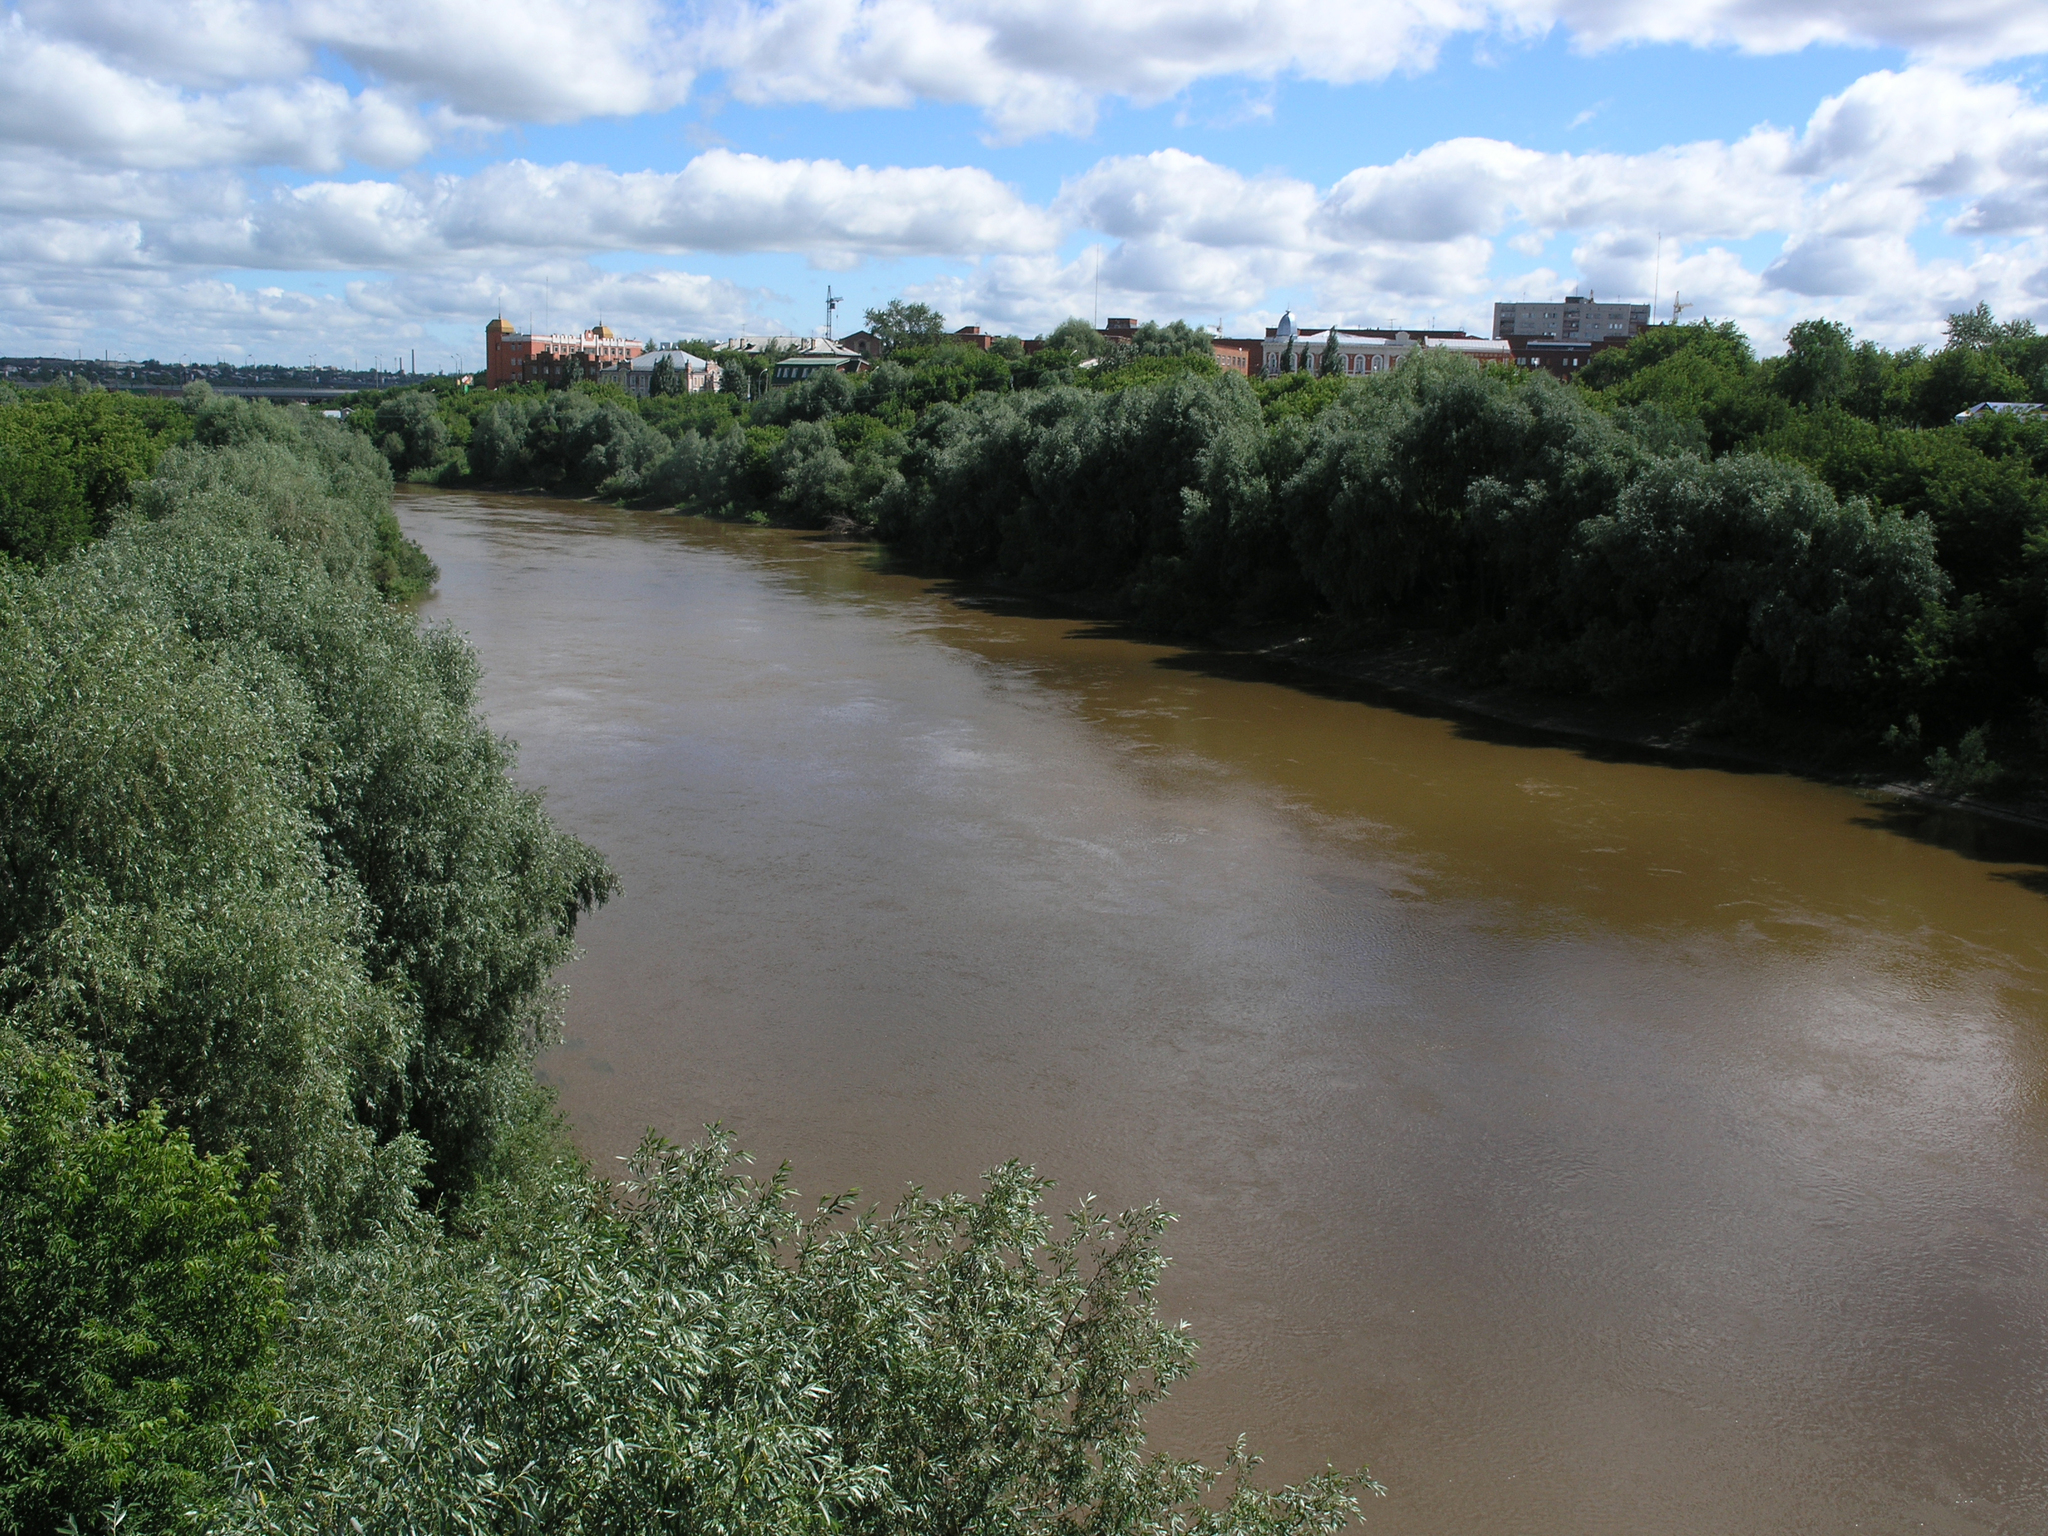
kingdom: Plantae
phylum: Tracheophyta
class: Magnoliopsida
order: Malpighiales
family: Salicaceae
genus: Salix
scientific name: Salix alba
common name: White willow
